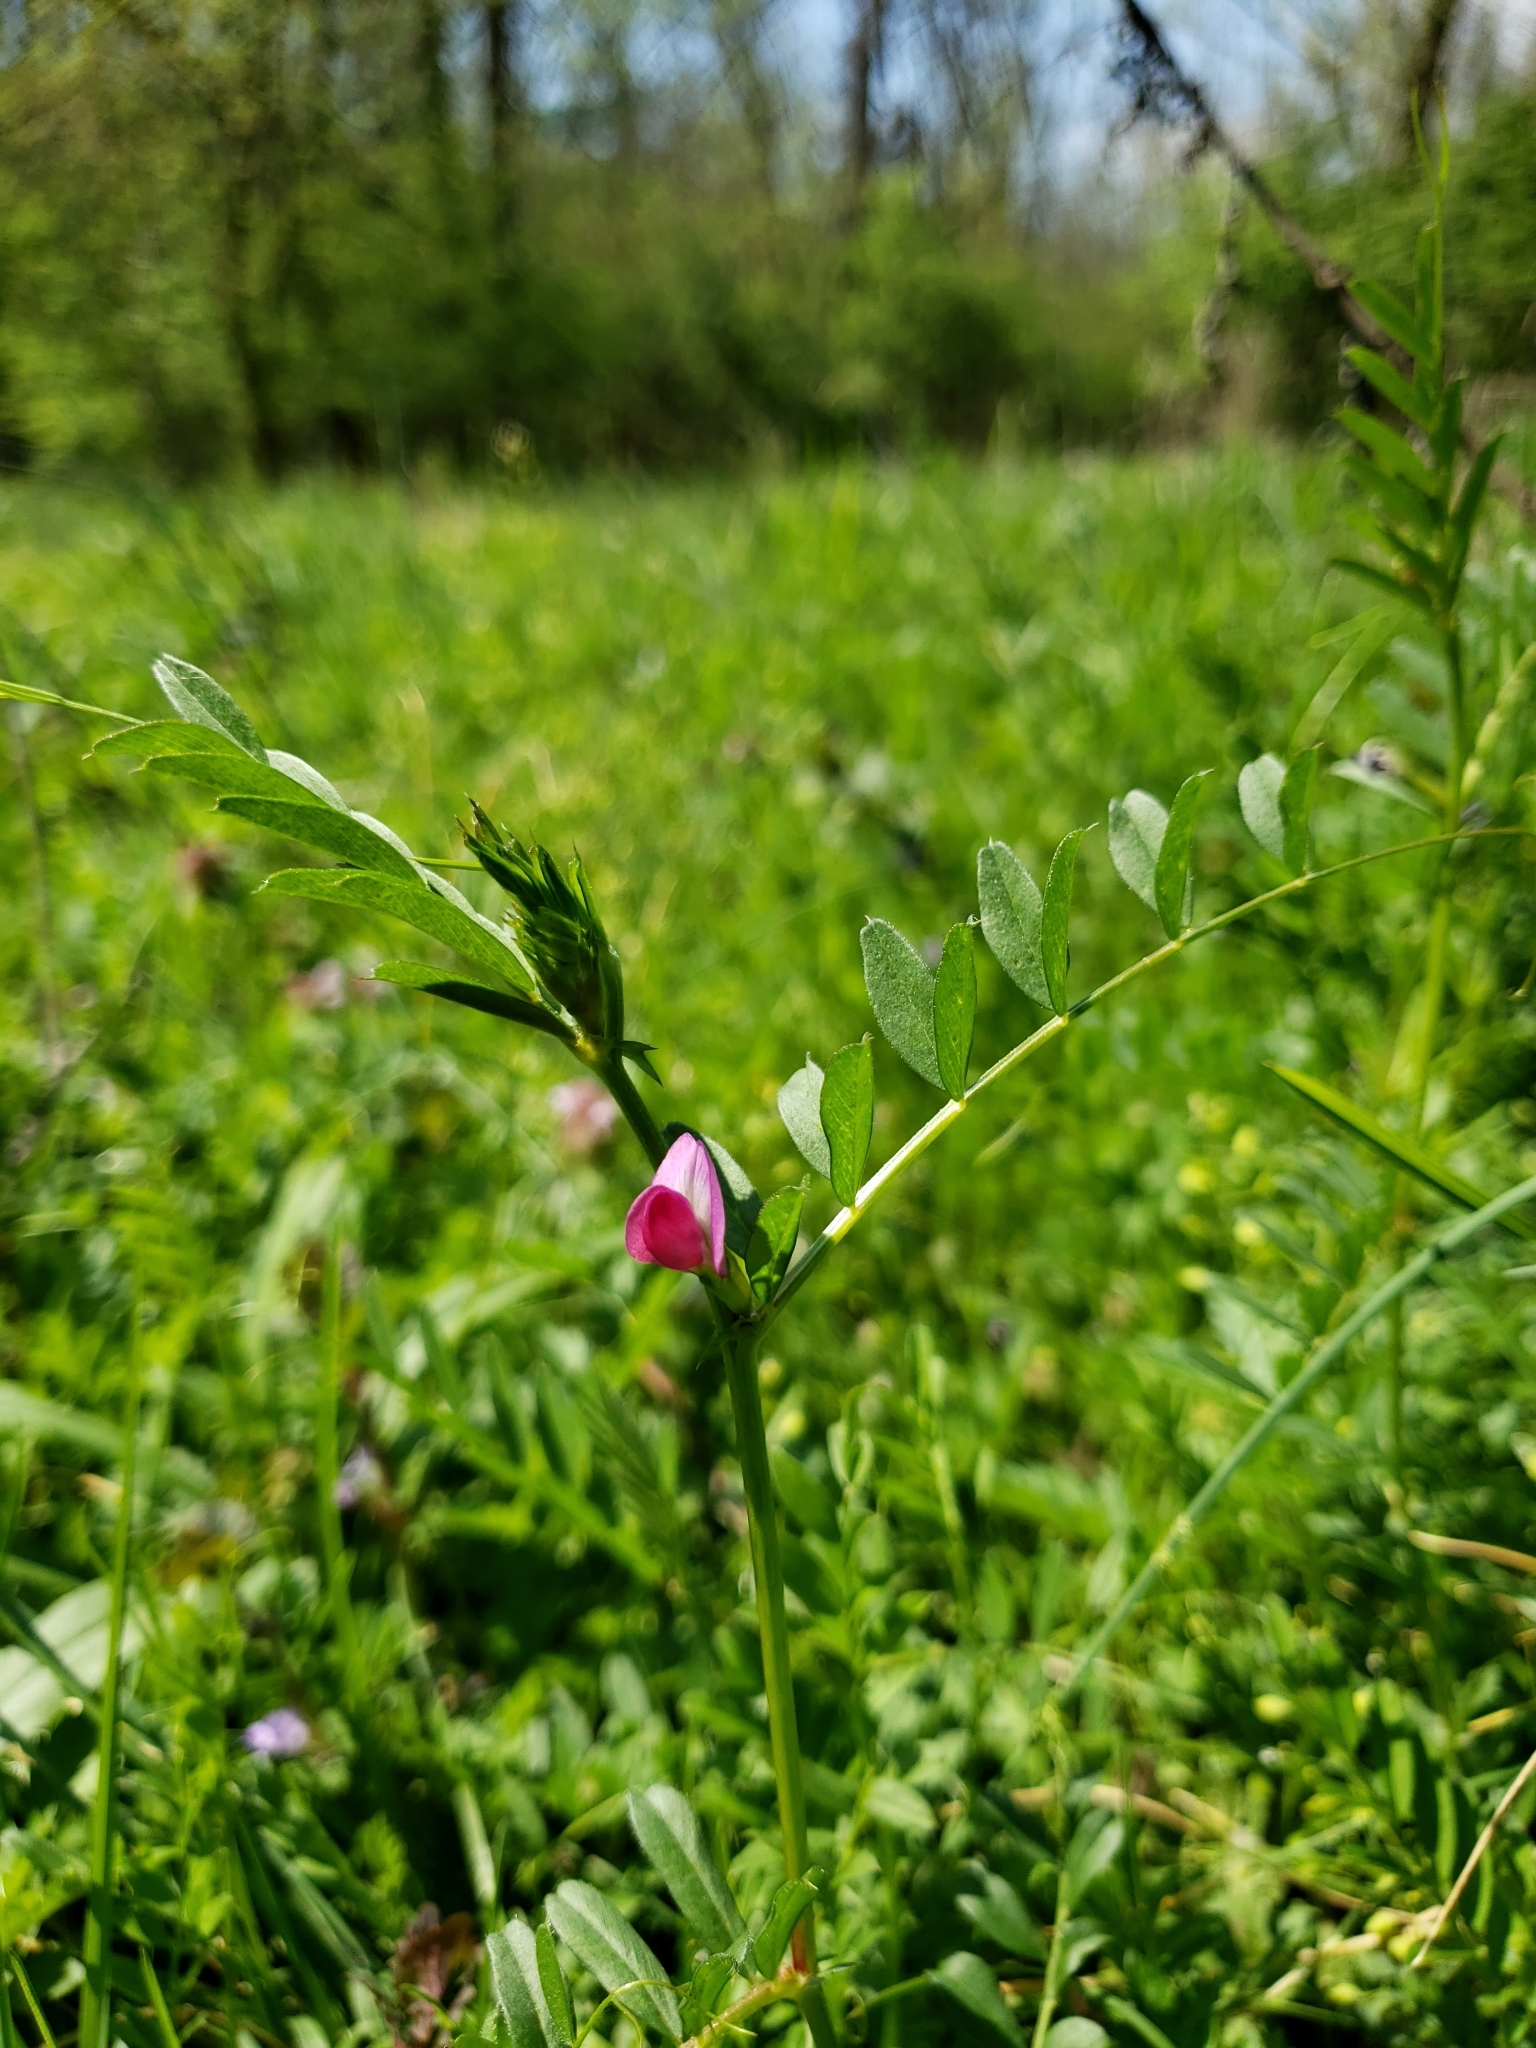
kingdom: Plantae
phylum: Tracheophyta
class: Magnoliopsida
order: Fabales
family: Fabaceae
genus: Vicia
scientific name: Vicia sativa
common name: Garden vetch
